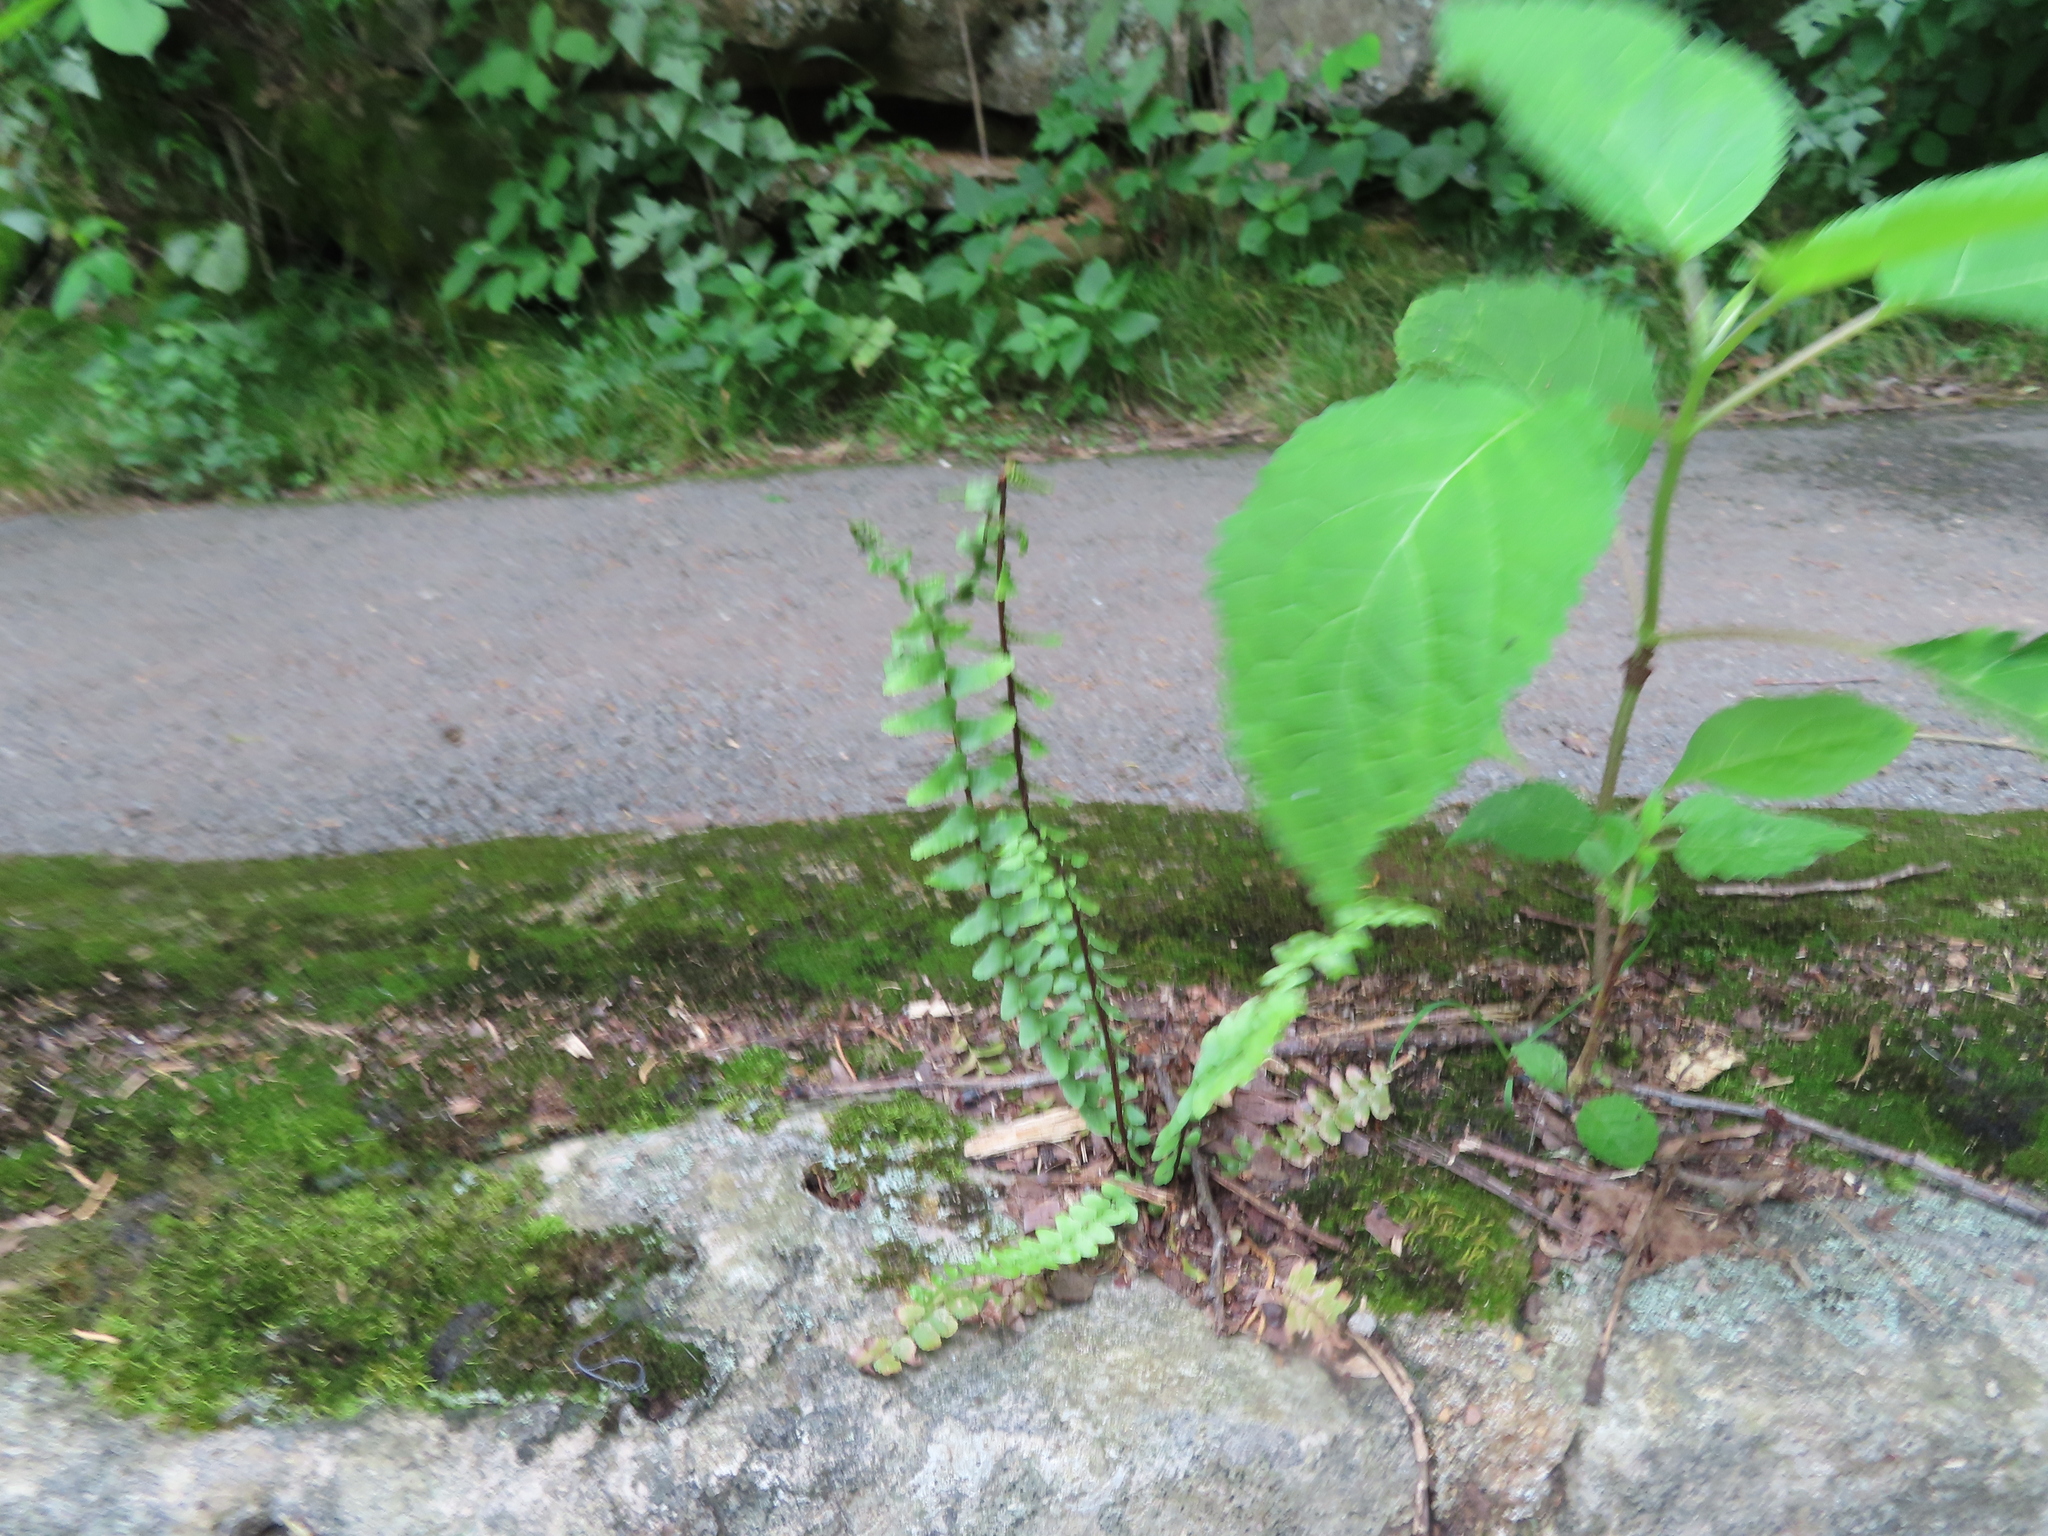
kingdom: Plantae
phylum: Tracheophyta
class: Polypodiopsida
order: Polypodiales
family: Aspleniaceae
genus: Asplenium
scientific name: Asplenium platyneuron
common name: Ebony spleenwort
